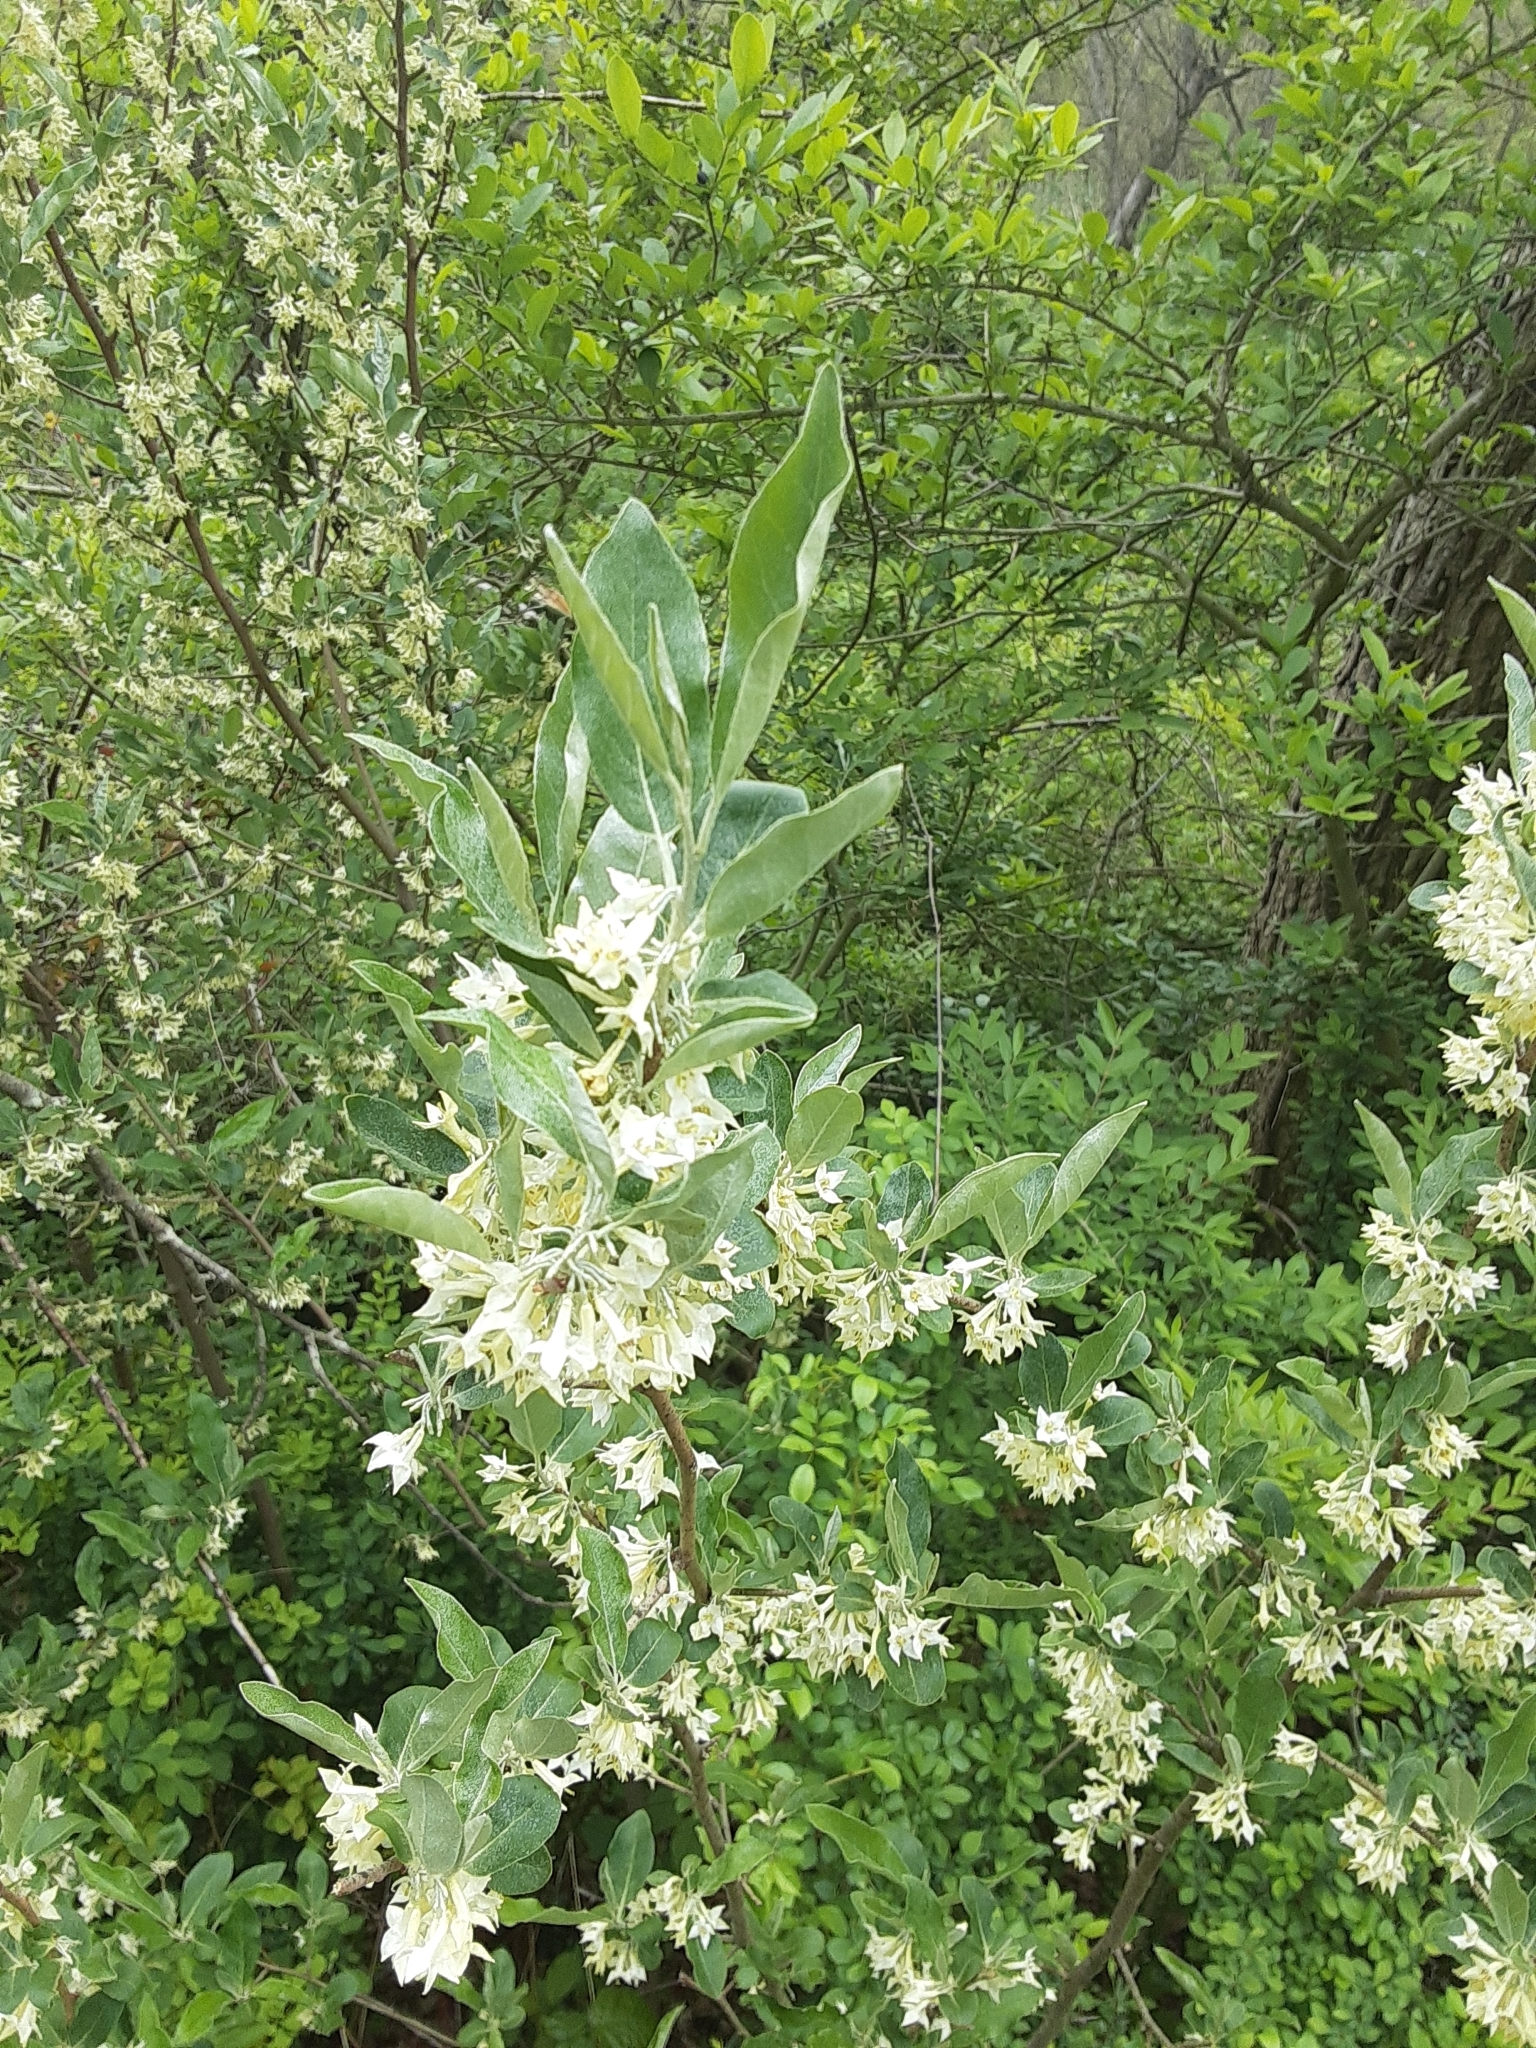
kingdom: Plantae
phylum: Tracheophyta
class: Magnoliopsida
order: Rosales
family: Elaeagnaceae
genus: Elaeagnus
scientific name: Elaeagnus umbellata
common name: Autumn olive
